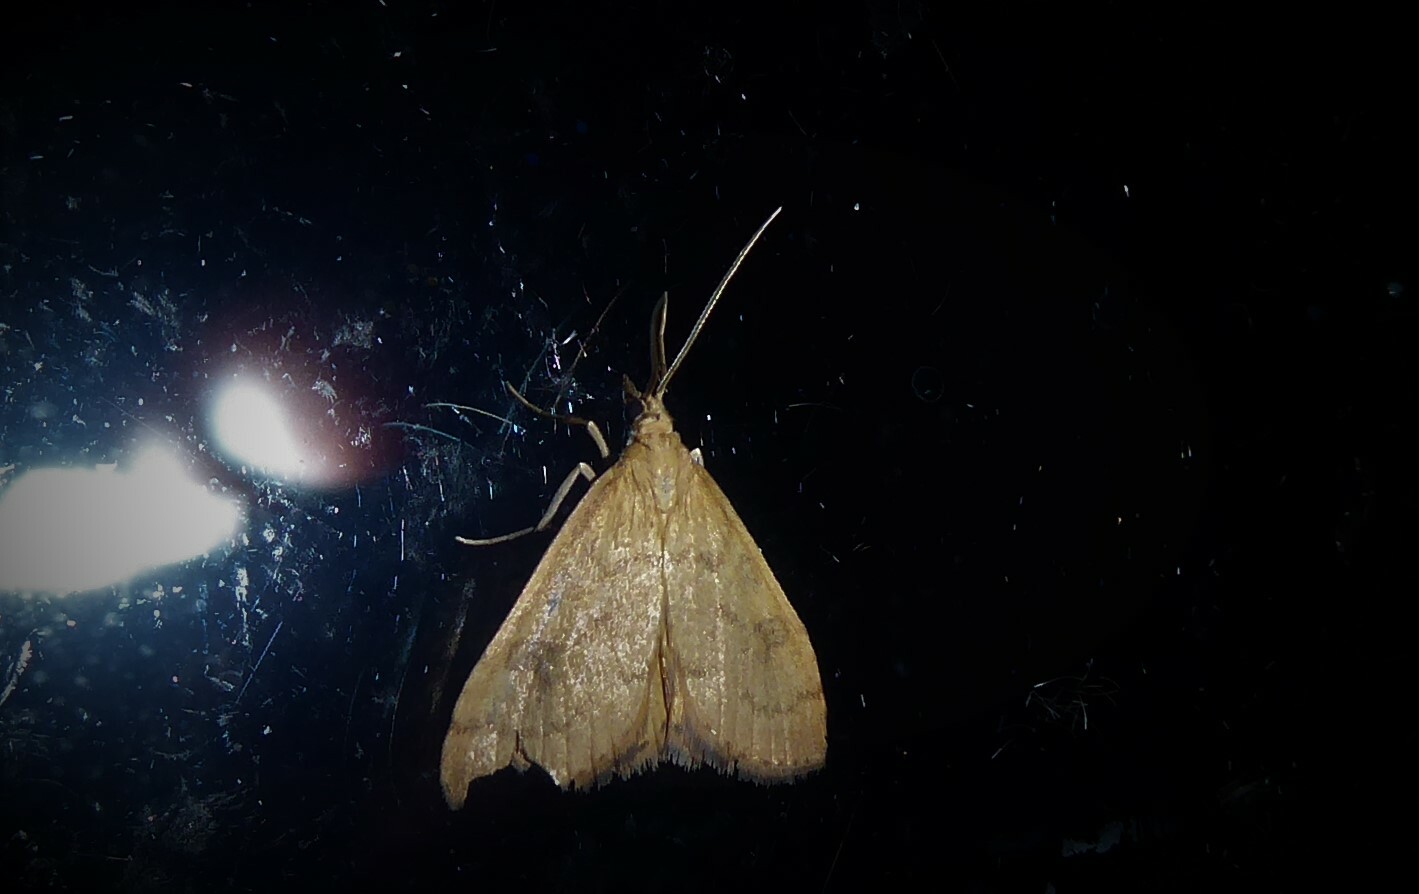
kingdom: Animalia
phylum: Arthropoda
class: Insecta
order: Lepidoptera
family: Crambidae
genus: Udea
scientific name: Udea Mnesictena flavidalis
